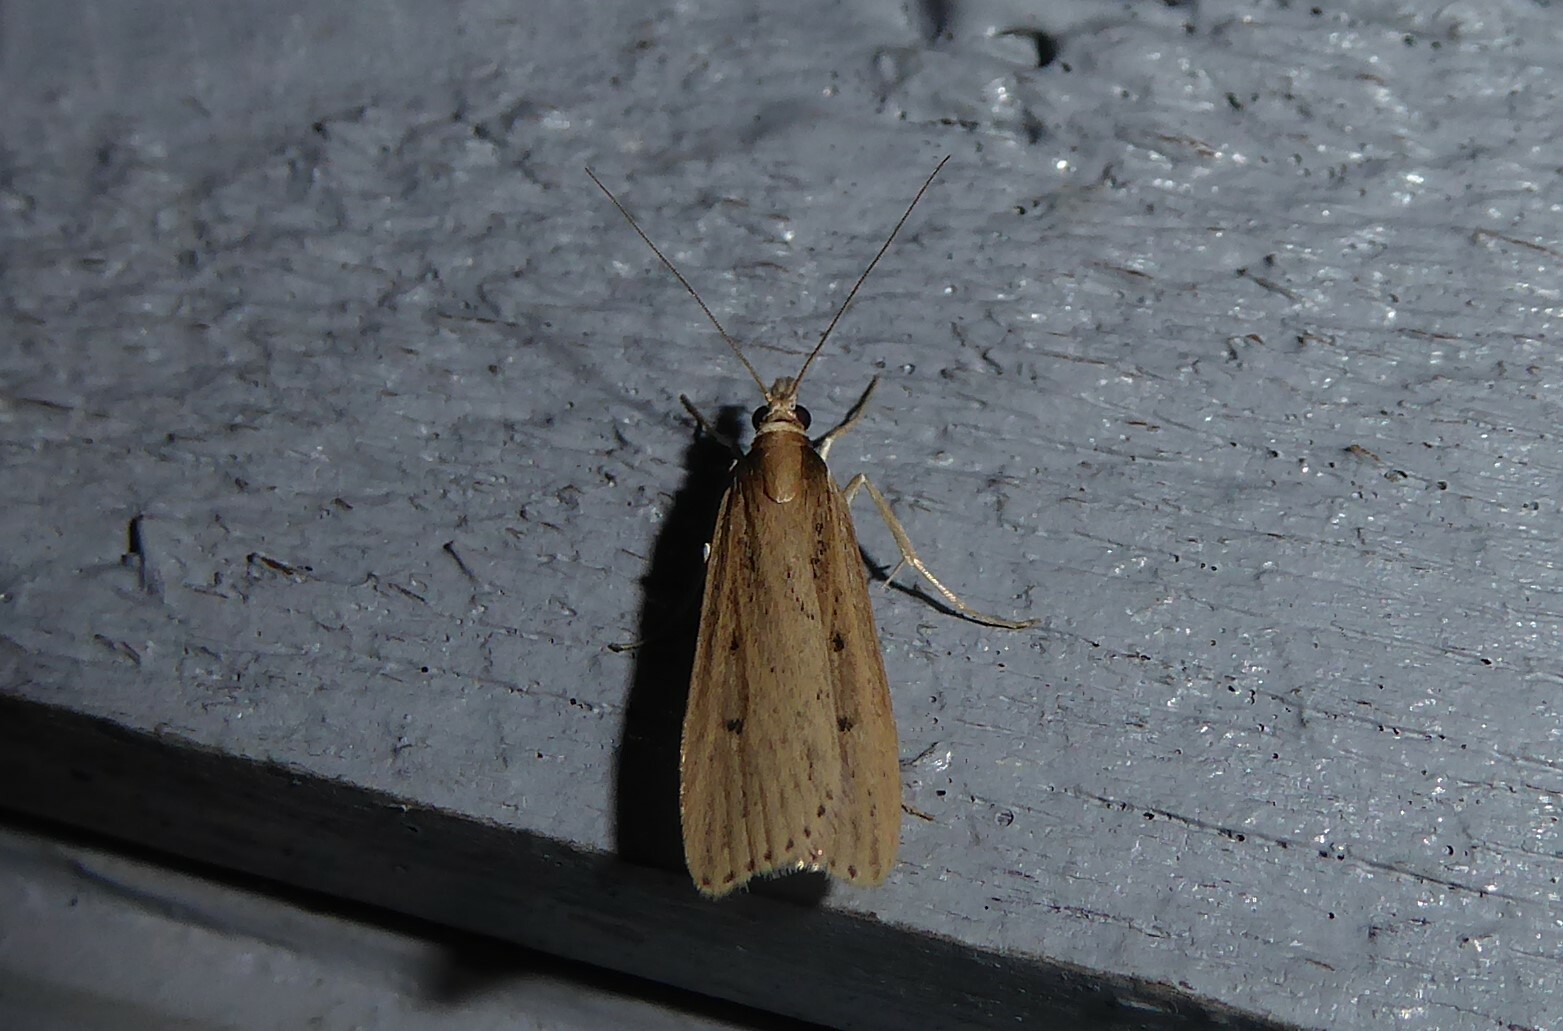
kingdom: Animalia
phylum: Arthropoda
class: Insecta
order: Lepidoptera
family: Crambidae
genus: Eudonia
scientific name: Eudonia sabulosella
